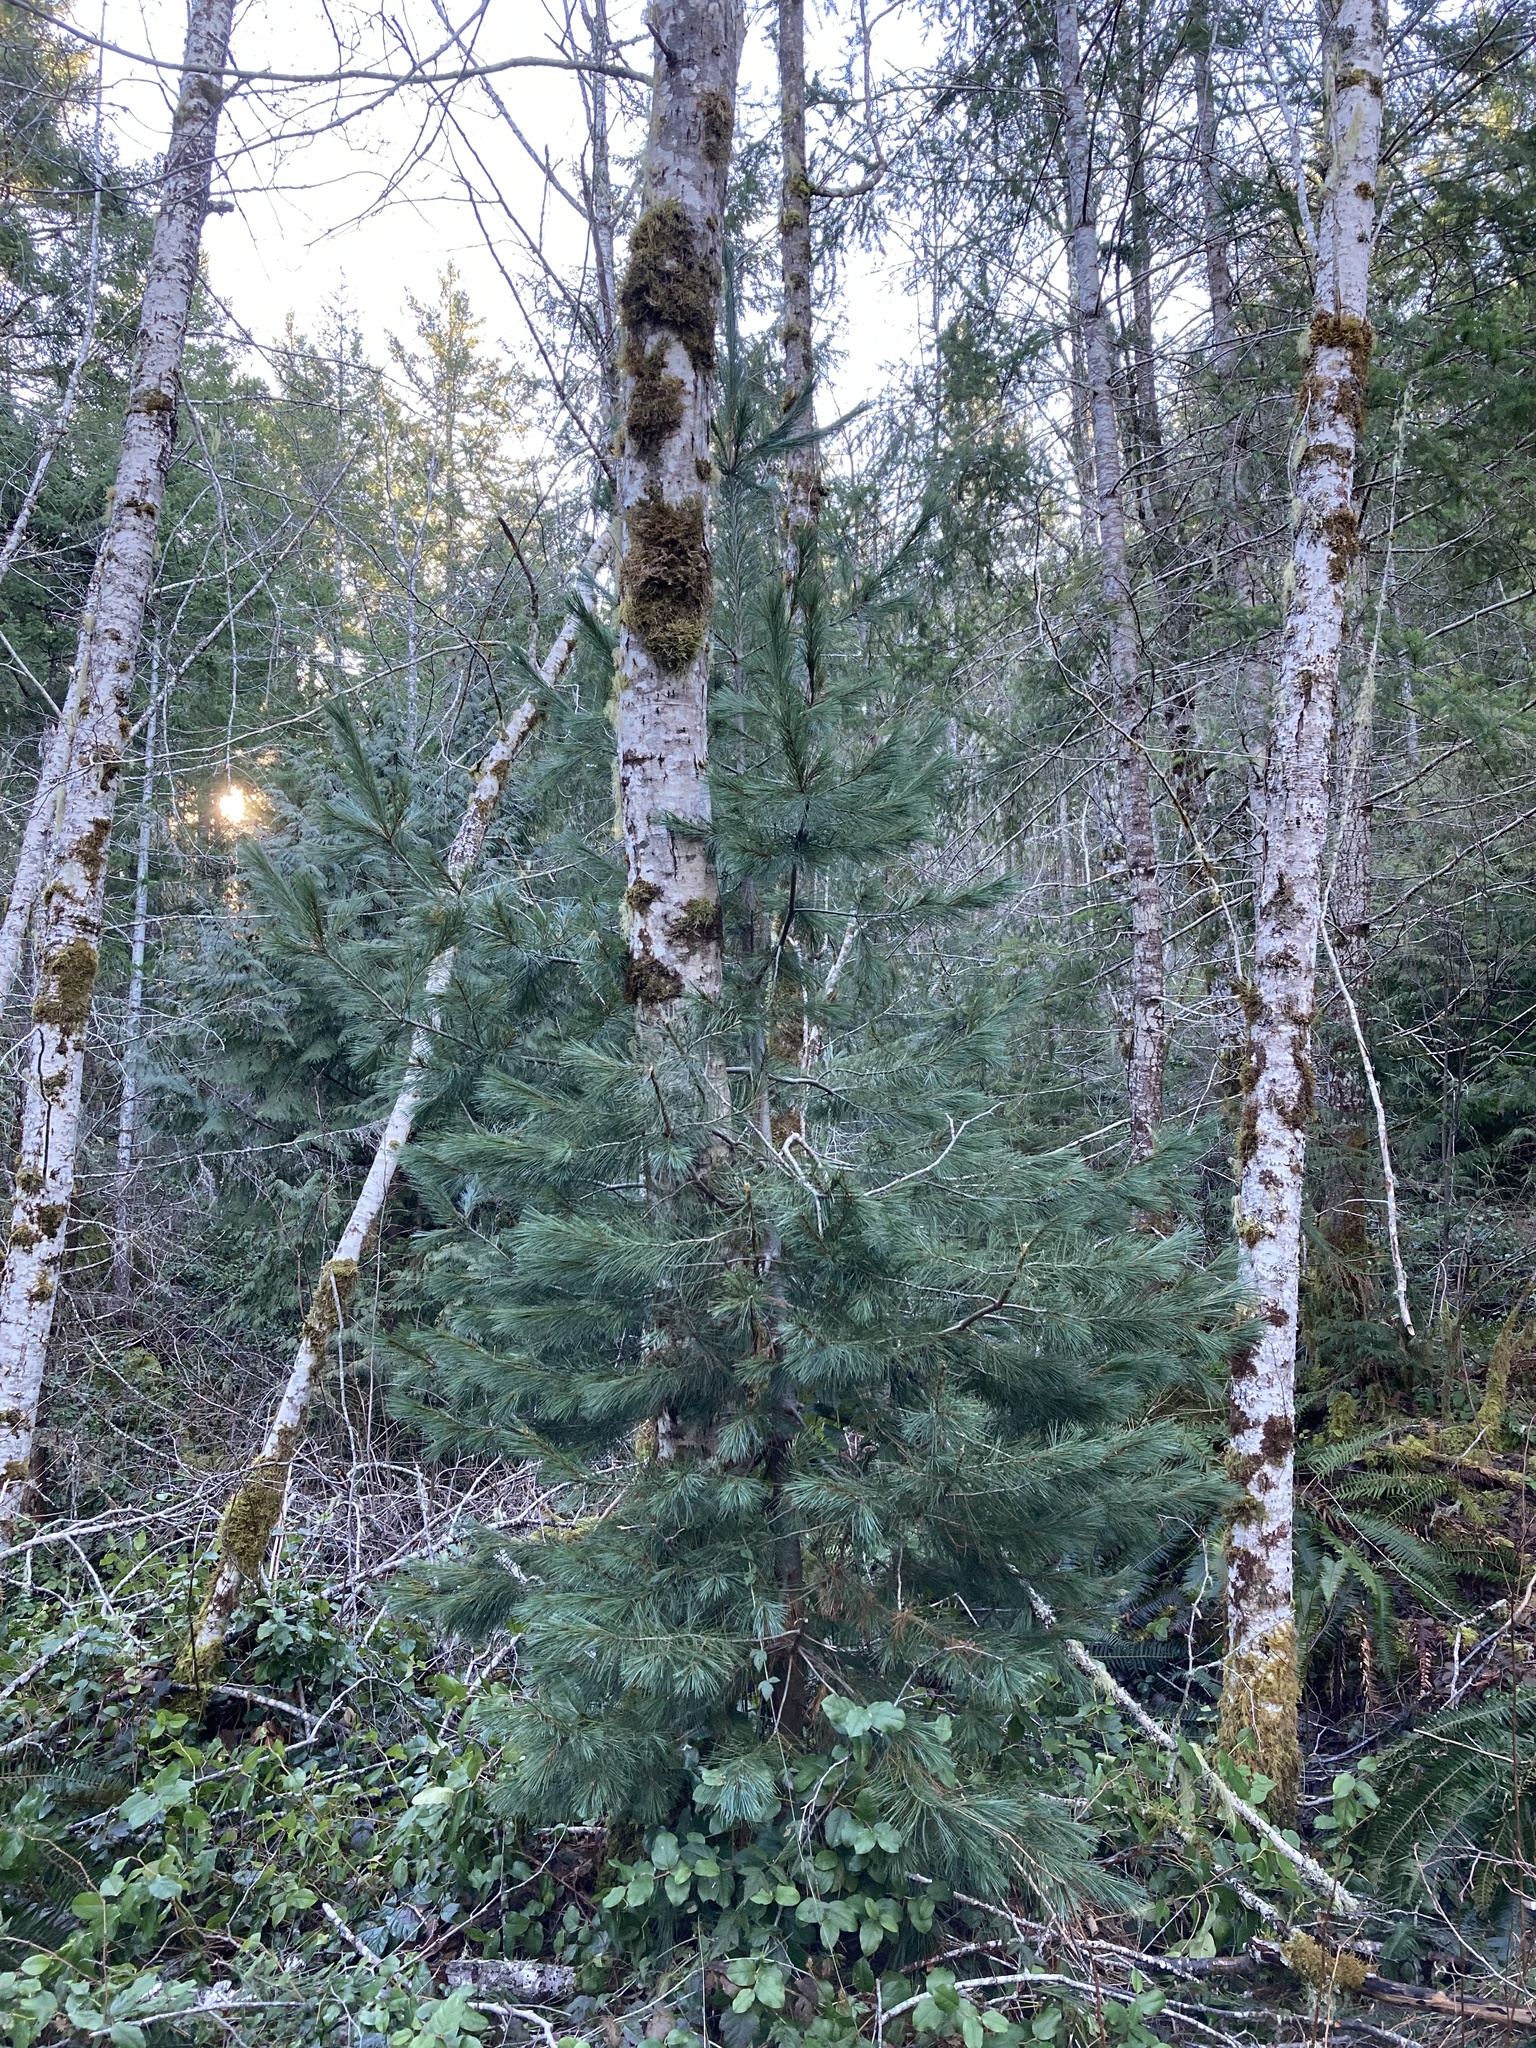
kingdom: Plantae
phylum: Tracheophyta
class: Pinopsida
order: Pinales
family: Pinaceae
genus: Pinus
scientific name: Pinus monticola
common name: Western white pine
